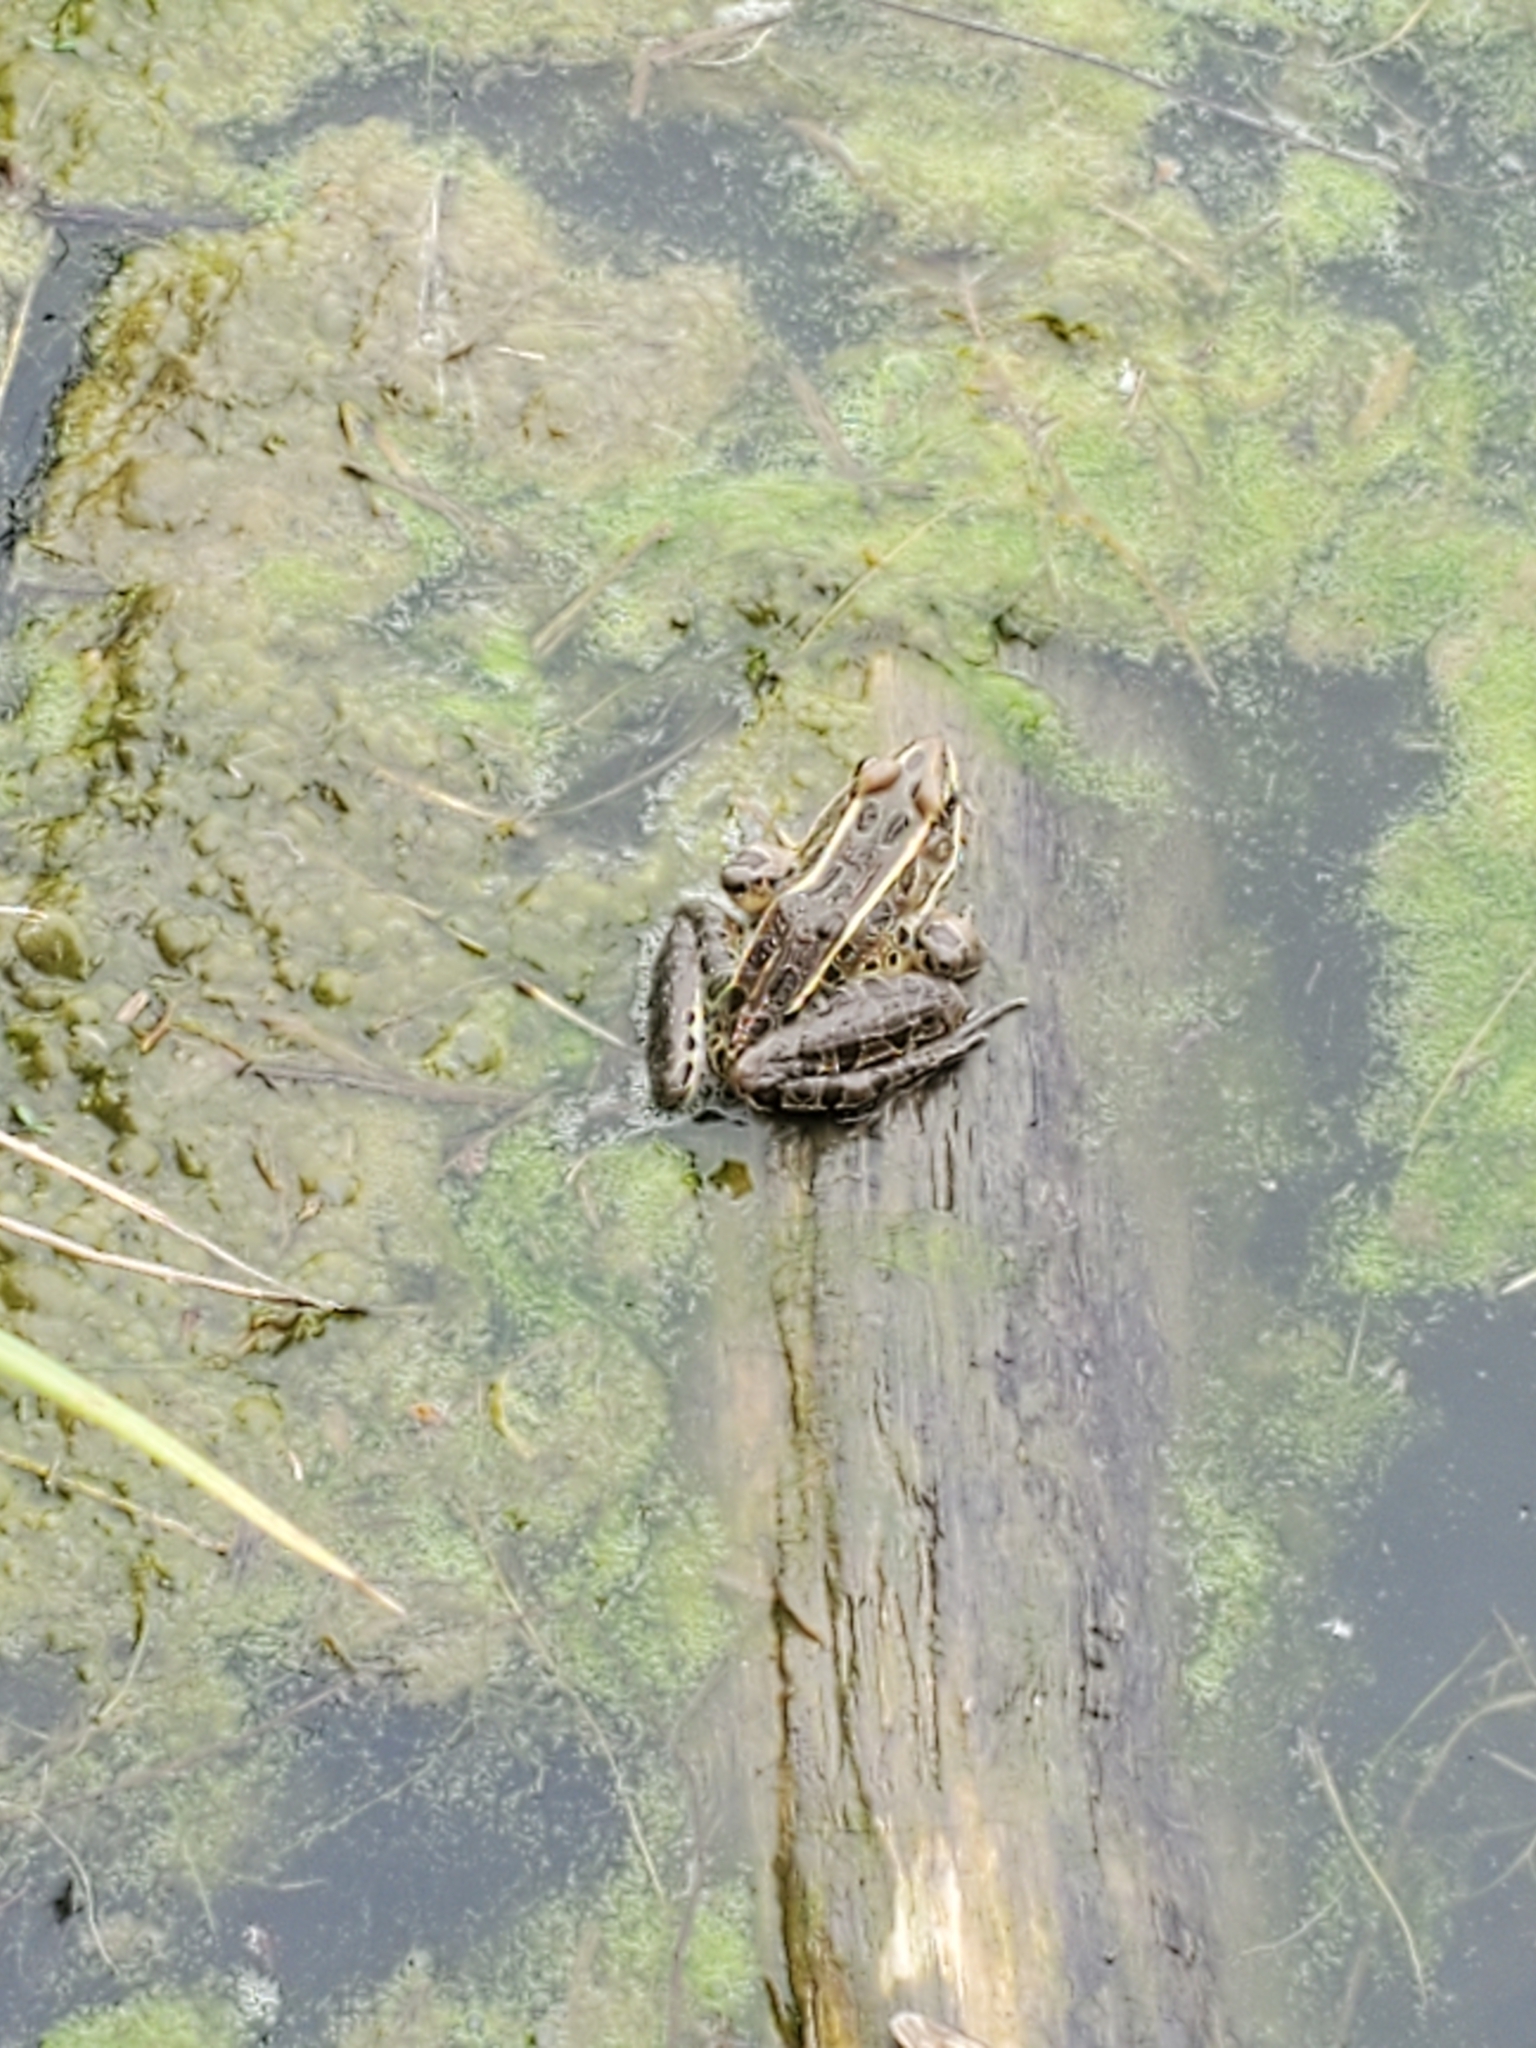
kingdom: Animalia
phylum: Chordata
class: Amphibia
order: Anura
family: Ranidae
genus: Lithobates
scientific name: Lithobates pipiens
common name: Northern leopard frog
